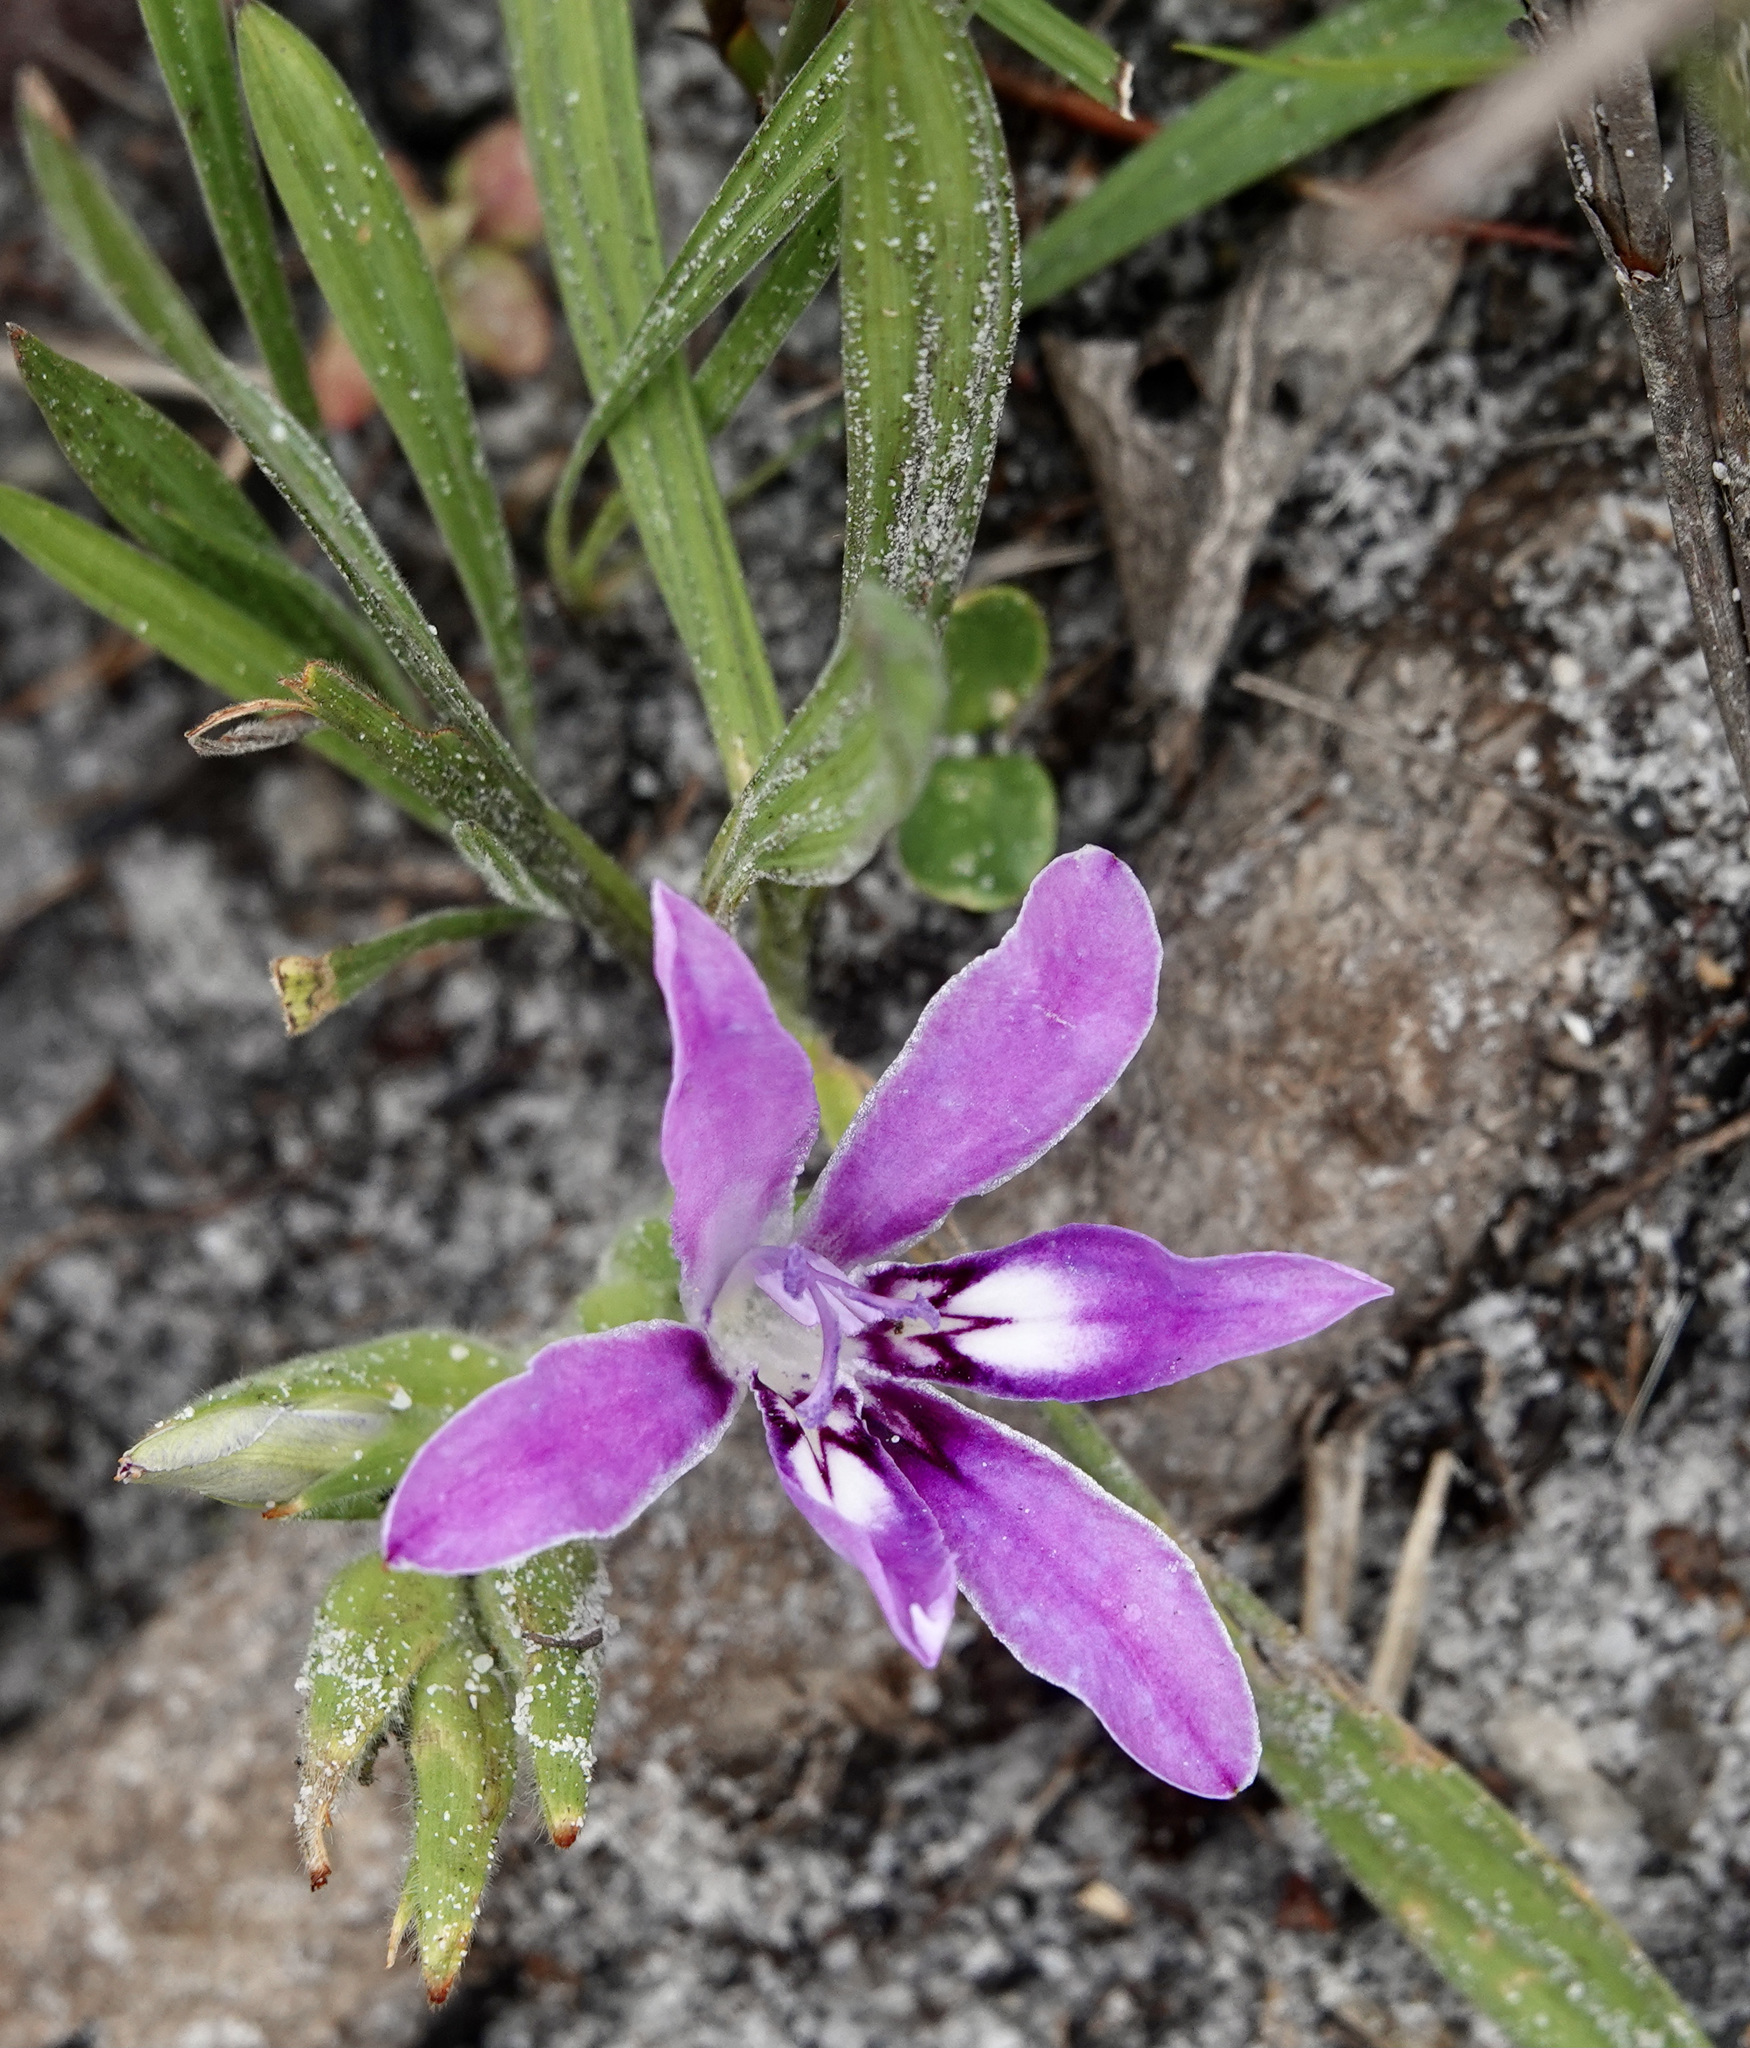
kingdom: Plantae
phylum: Tracheophyta
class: Liliopsida
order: Asparagales
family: Iridaceae
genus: Babiana
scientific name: Babiana ambigua
